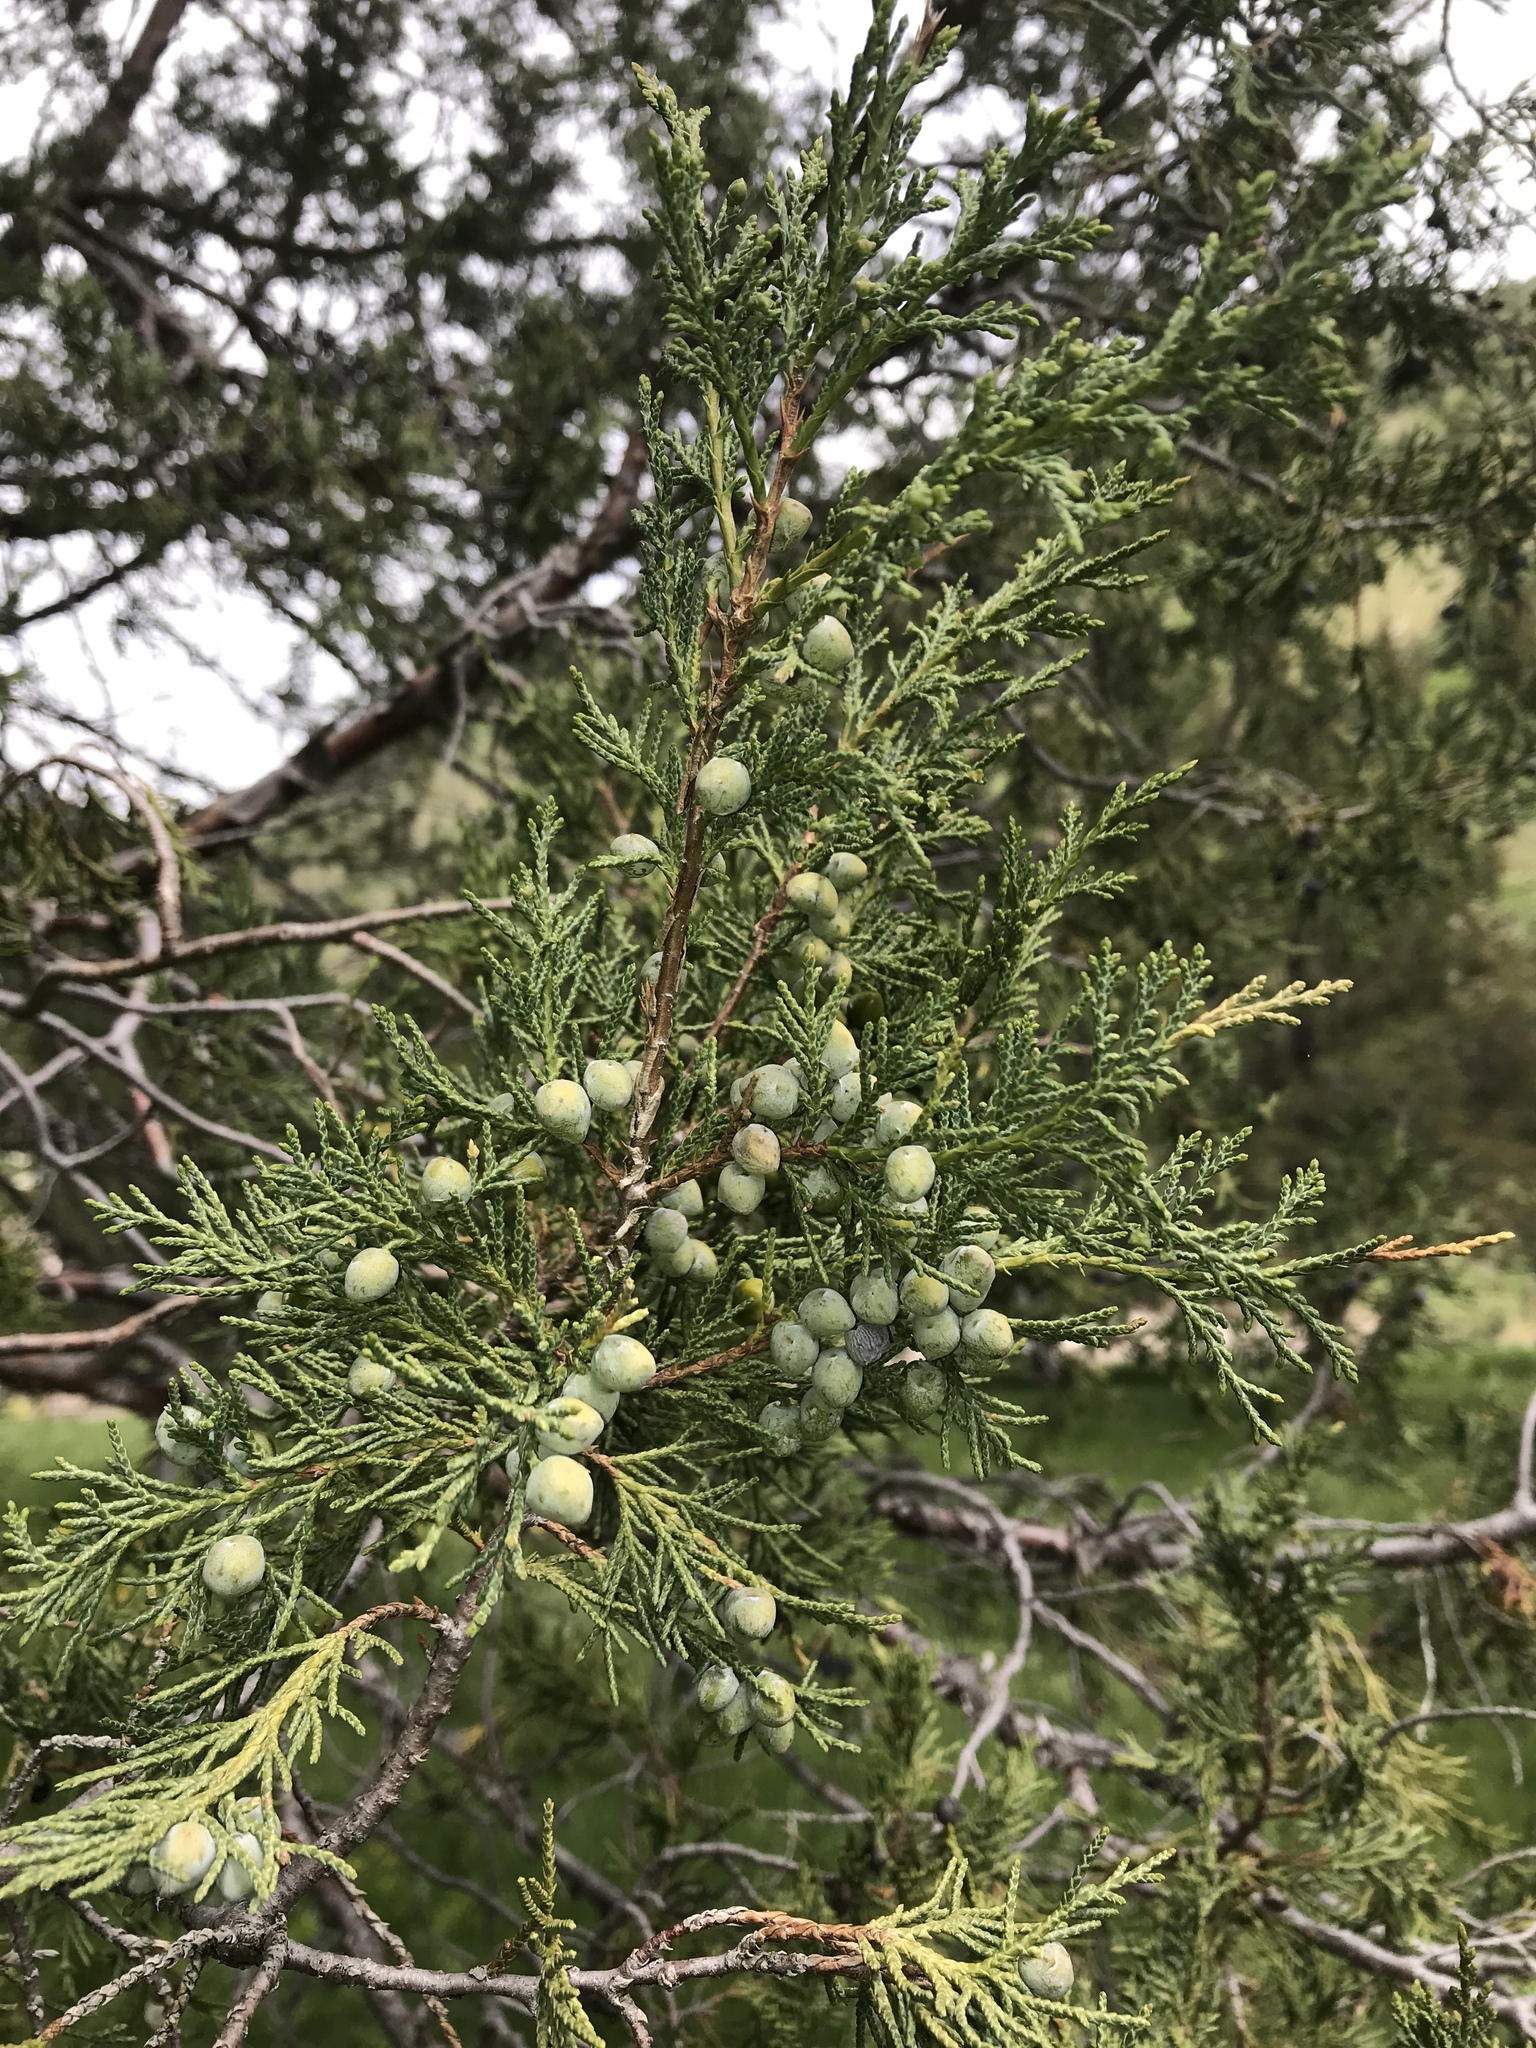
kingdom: Plantae
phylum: Tracheophyta
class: Pinopsida
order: Pinales
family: Cupressaceae
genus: Juniperus
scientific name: Juniperus scopulorum
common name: Rocky mountain juniper
